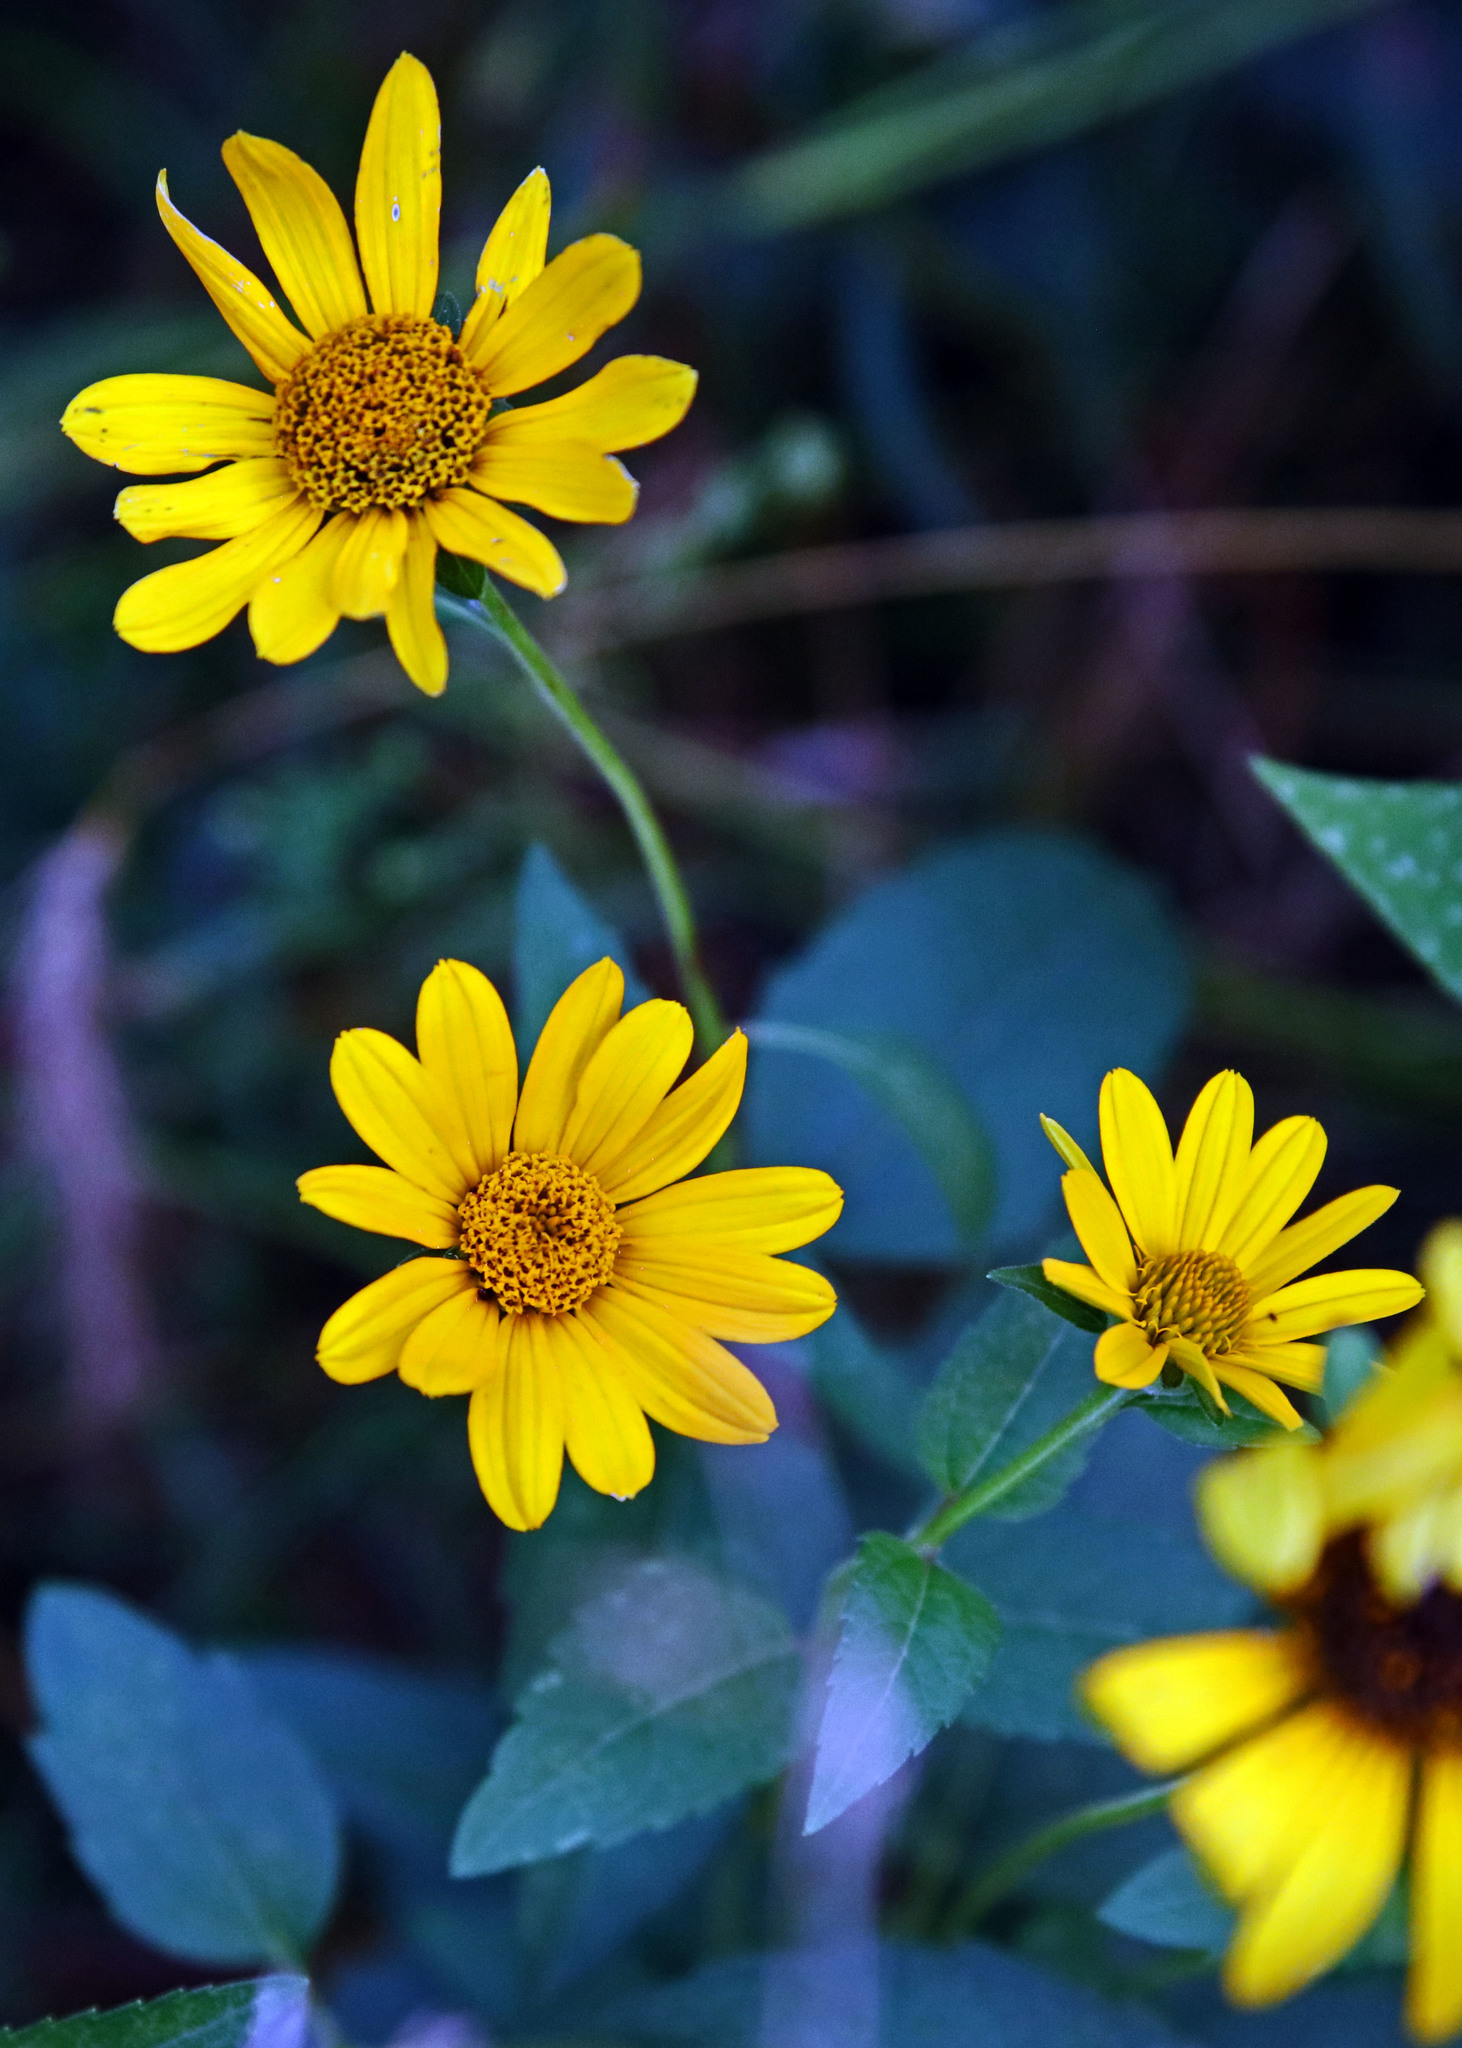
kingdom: Plantae
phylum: Tracheophyta
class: Magnoliopsida
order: Asterales
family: Asteraceae
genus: Heliopsis
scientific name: Heliopsis helianthoides
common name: False sunflower
